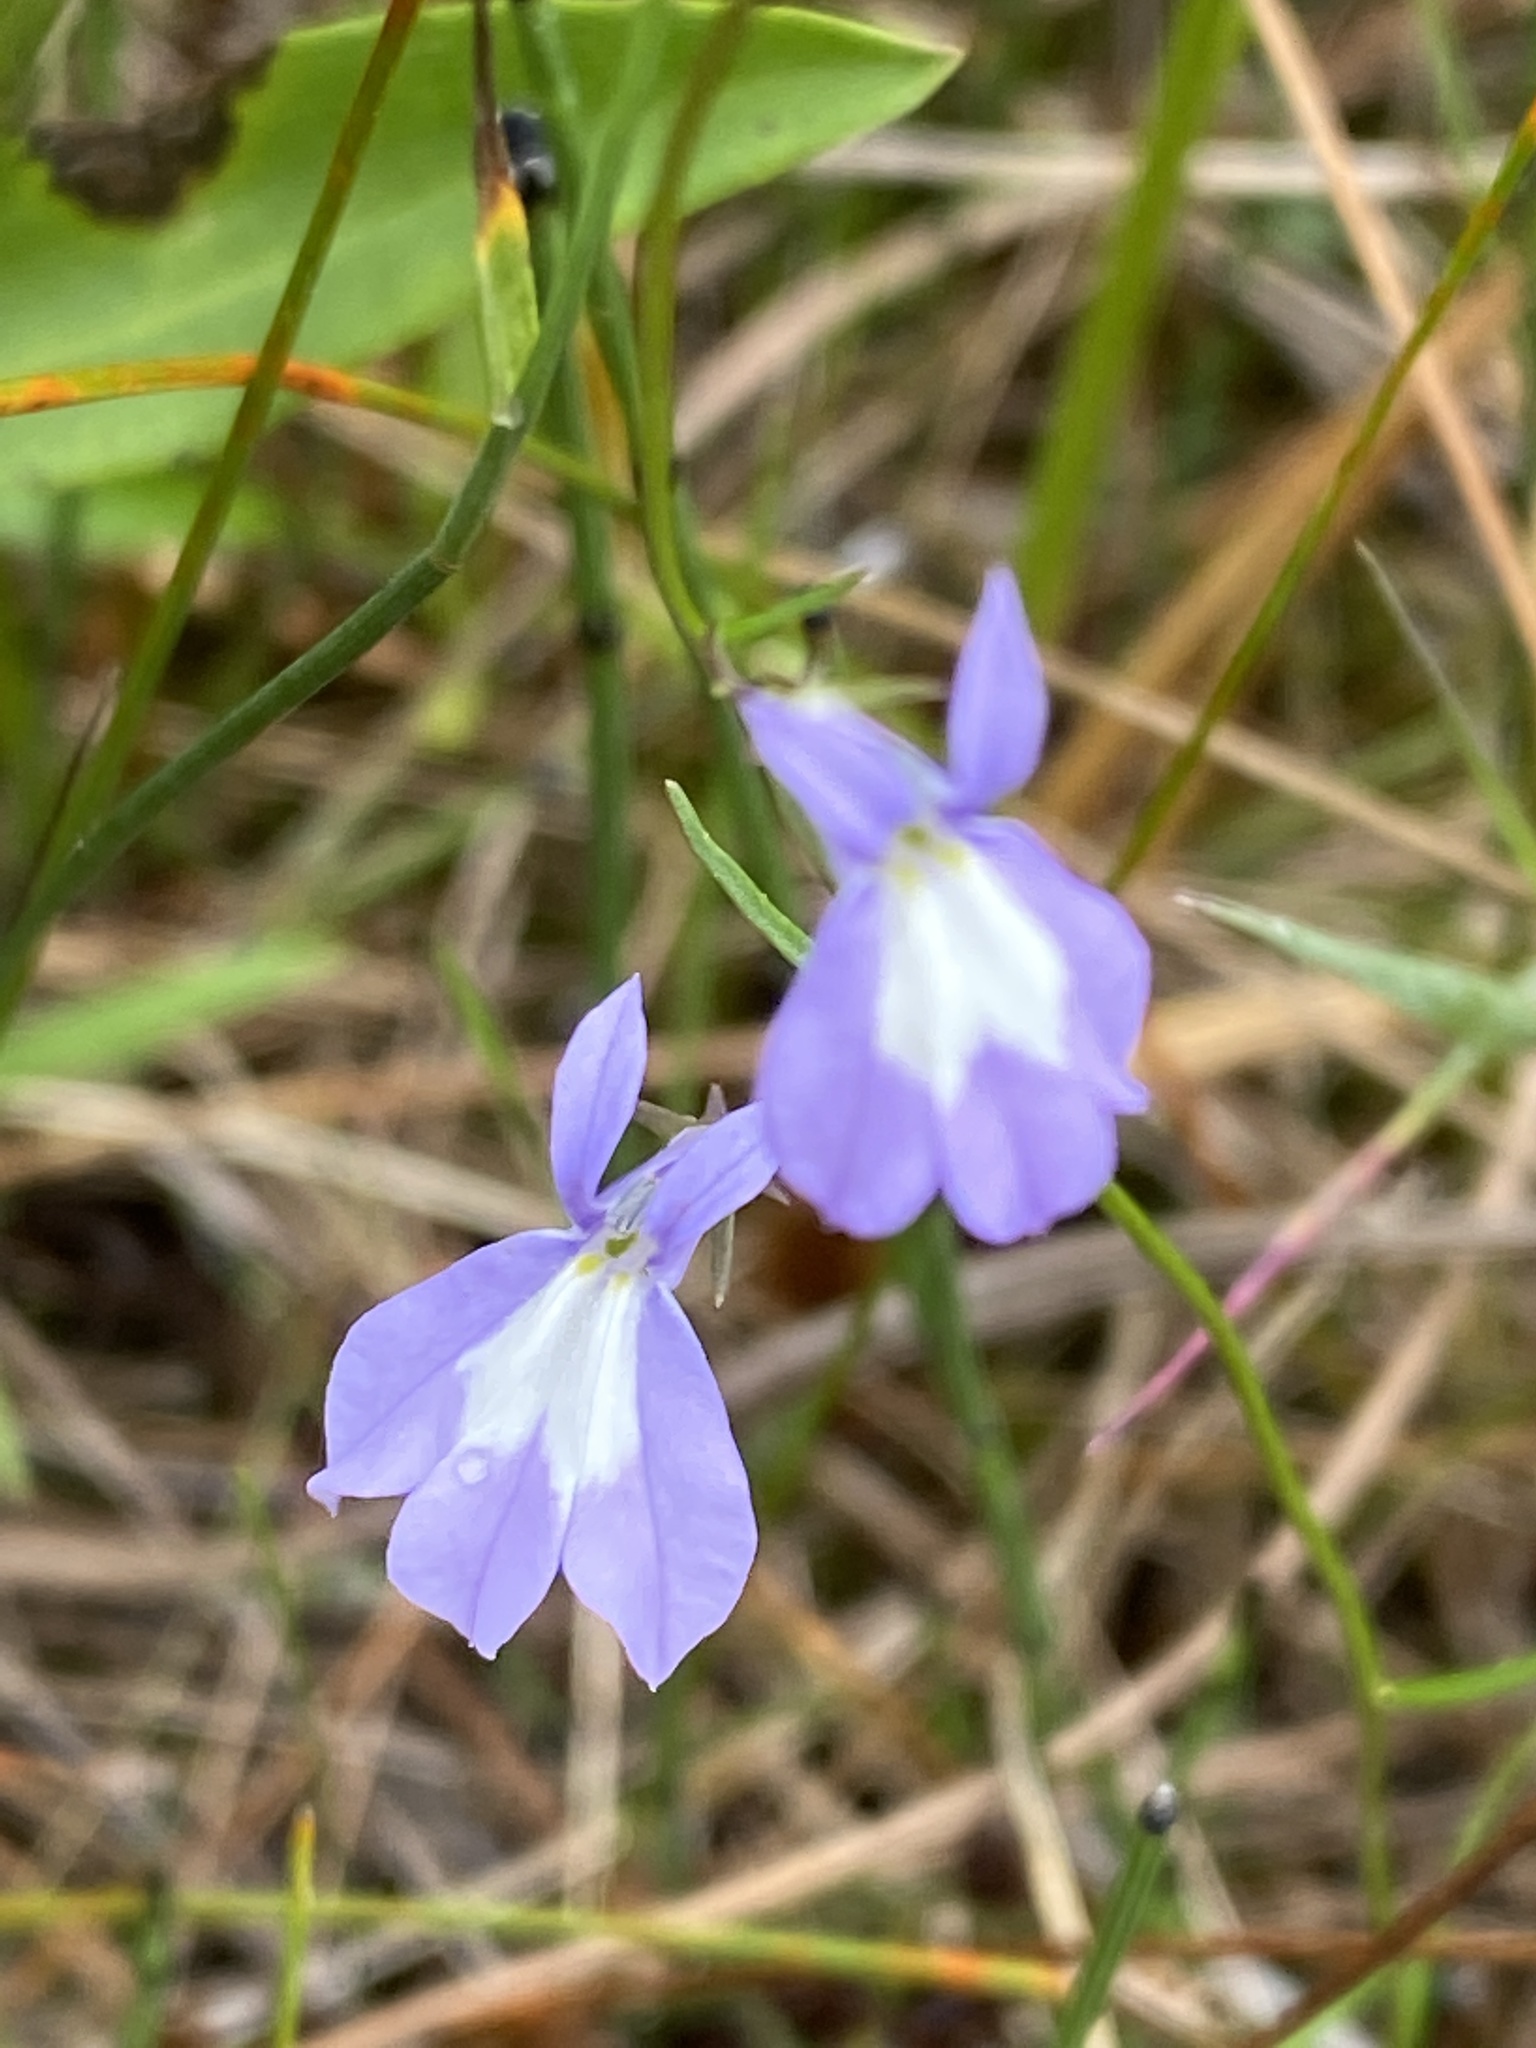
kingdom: Plantae
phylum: Tracheophyta
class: Magnoliopsida
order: Asterales
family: Campanulaceae
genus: Lobelia
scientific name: Lobelia kalmii
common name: Kalm's lobelia
